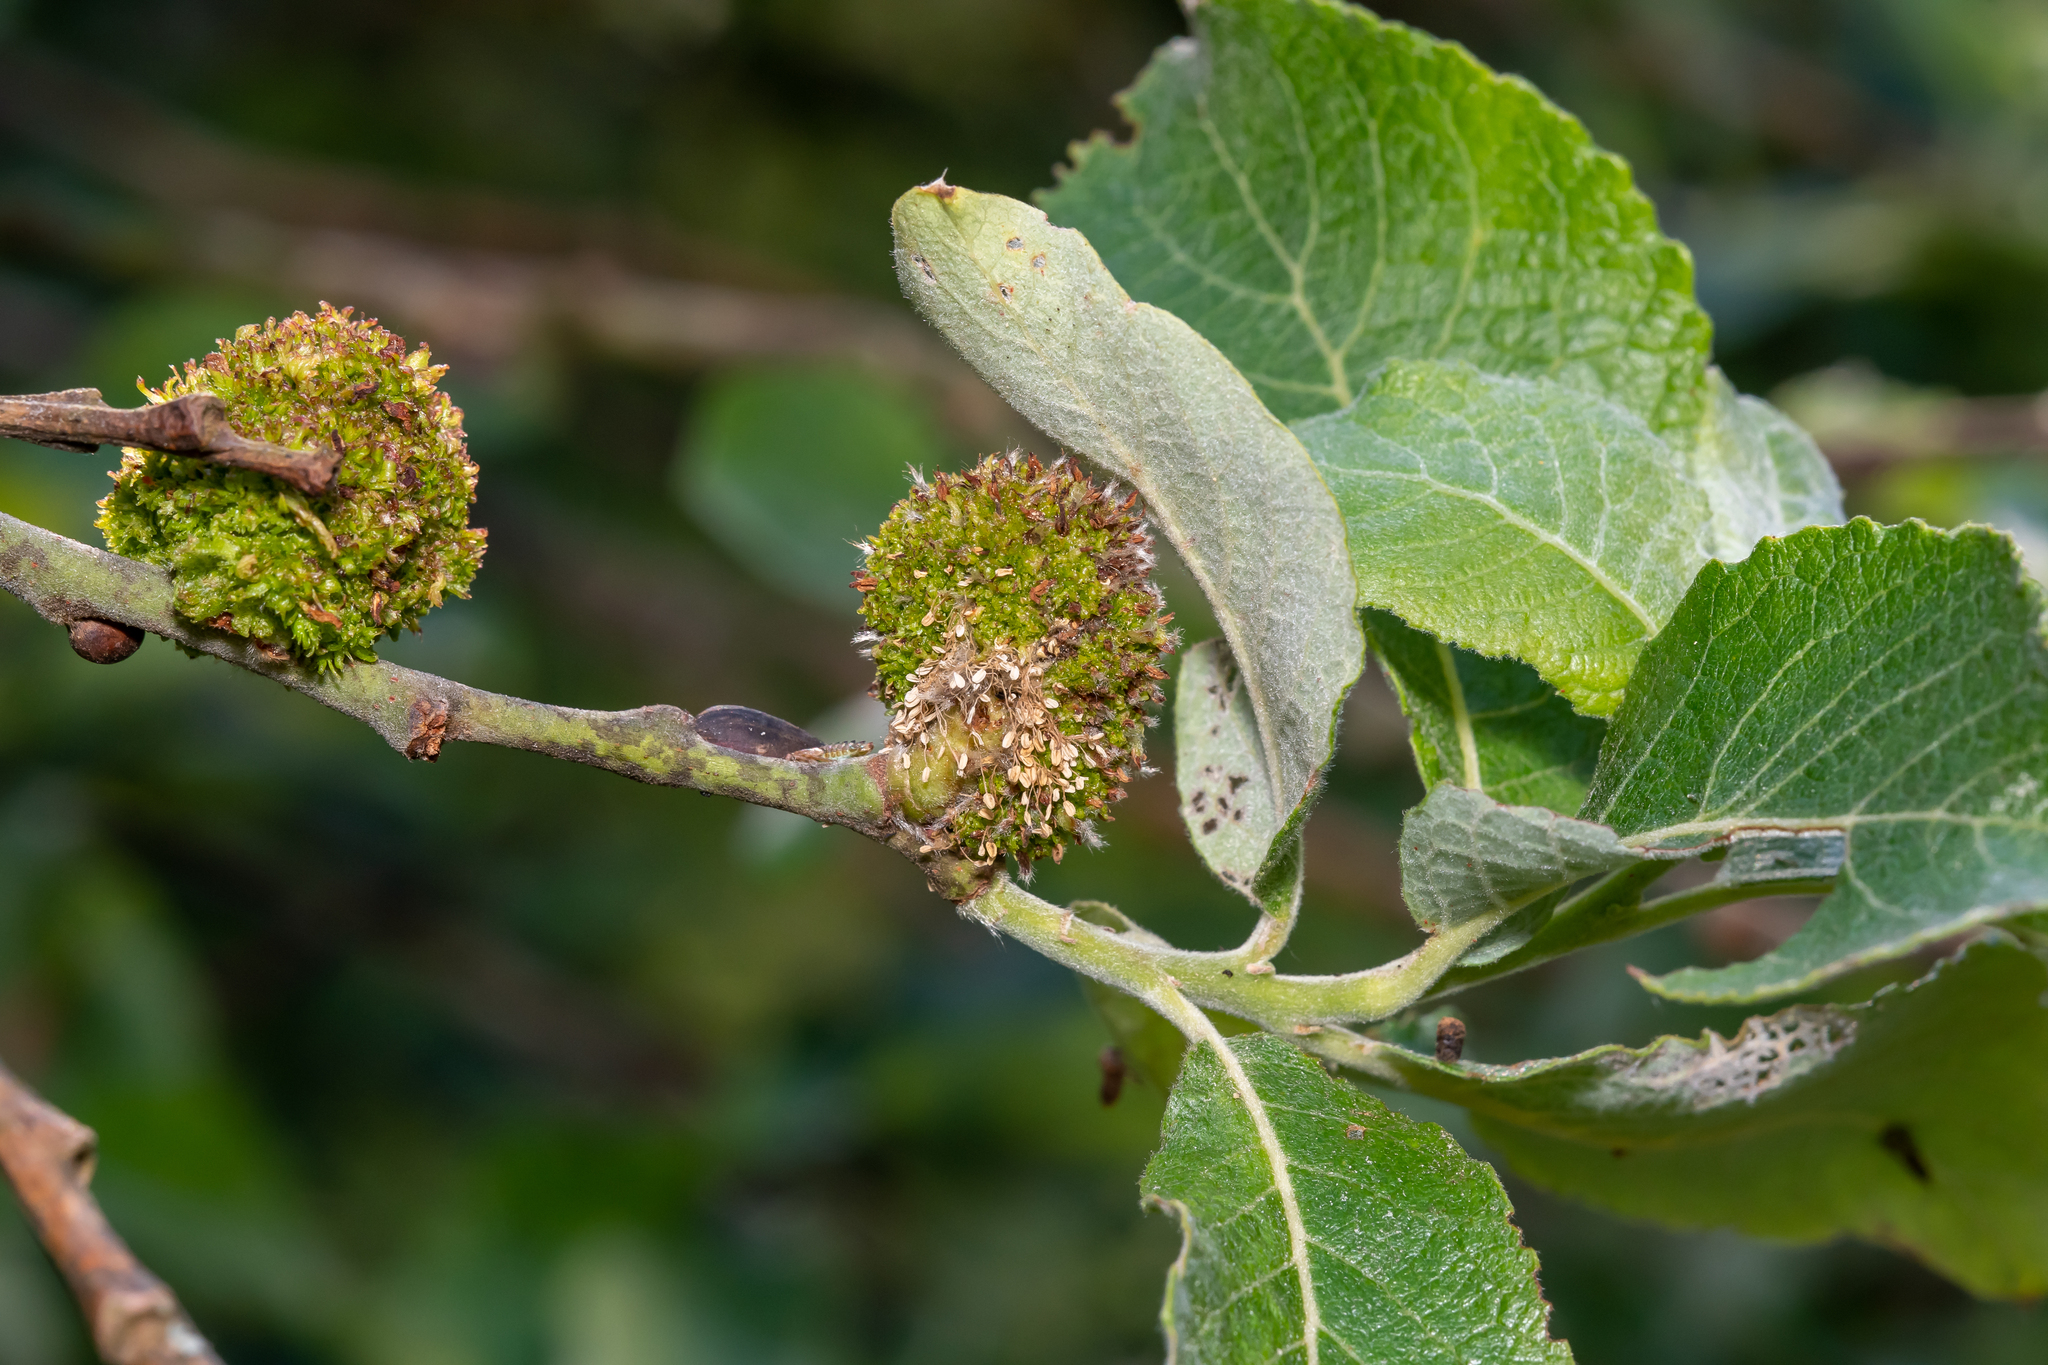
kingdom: Animalia
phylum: Arthropoda
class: Arachnida
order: Trombidiformes
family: Eriophyidae
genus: Stenacis
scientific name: Stenacis triradiatus
